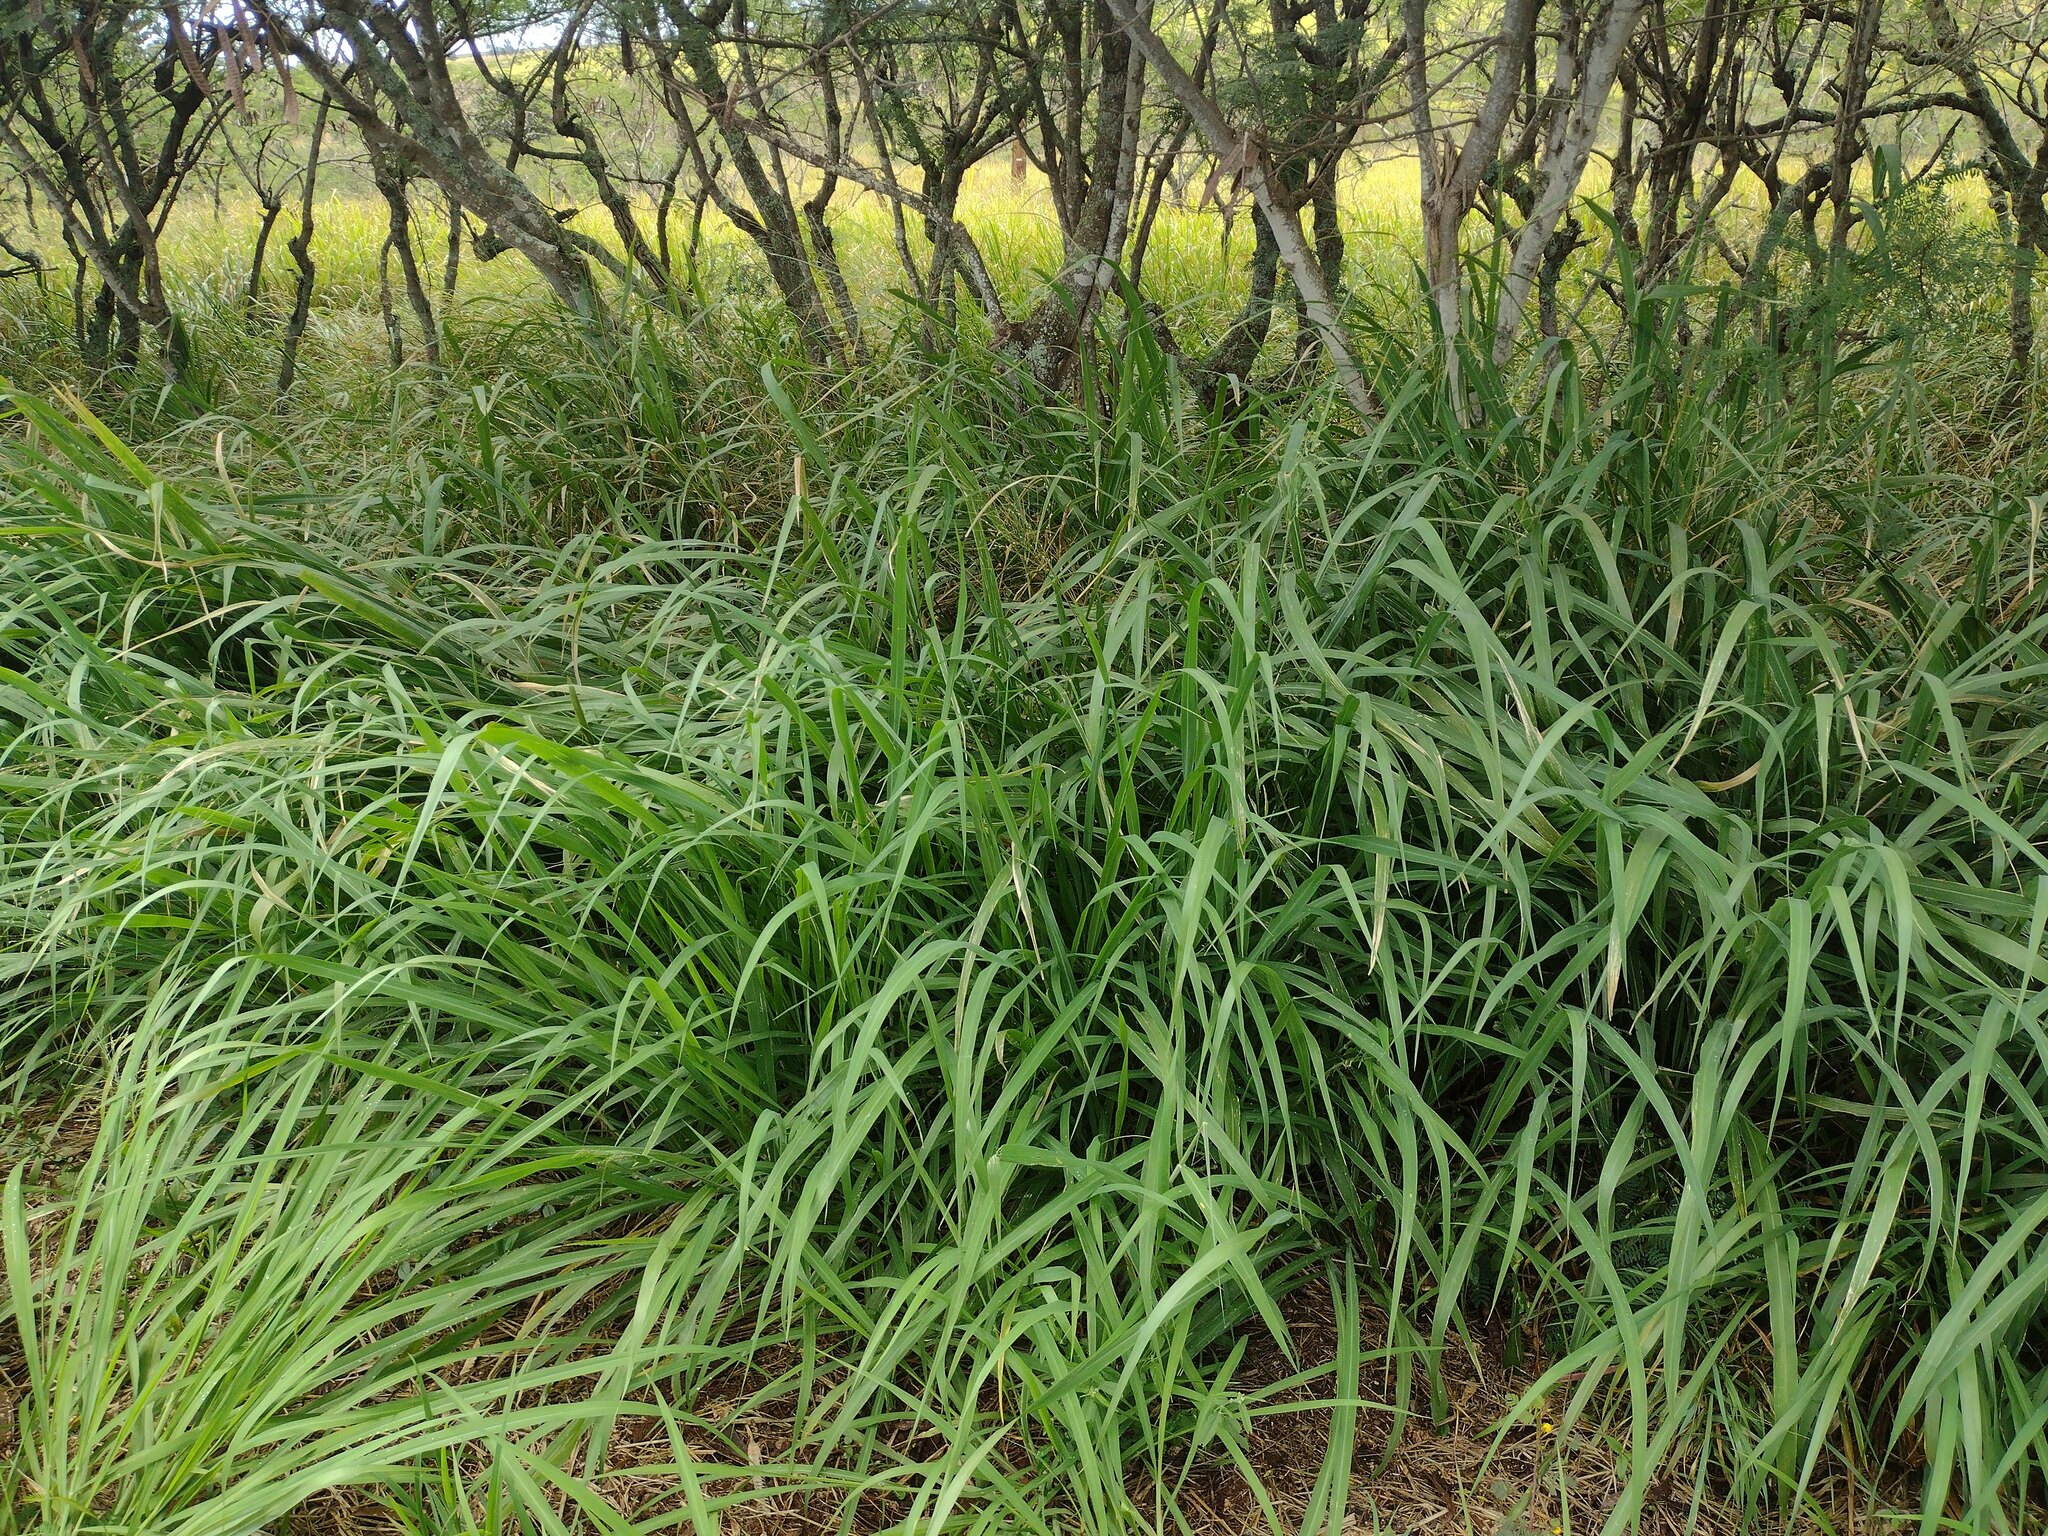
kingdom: Plantae
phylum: Tracheophyta
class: Liliopsida
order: Poales
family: Poaceae
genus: Megathyrsus
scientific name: Megathyrsus maximus
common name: Guineagrass
